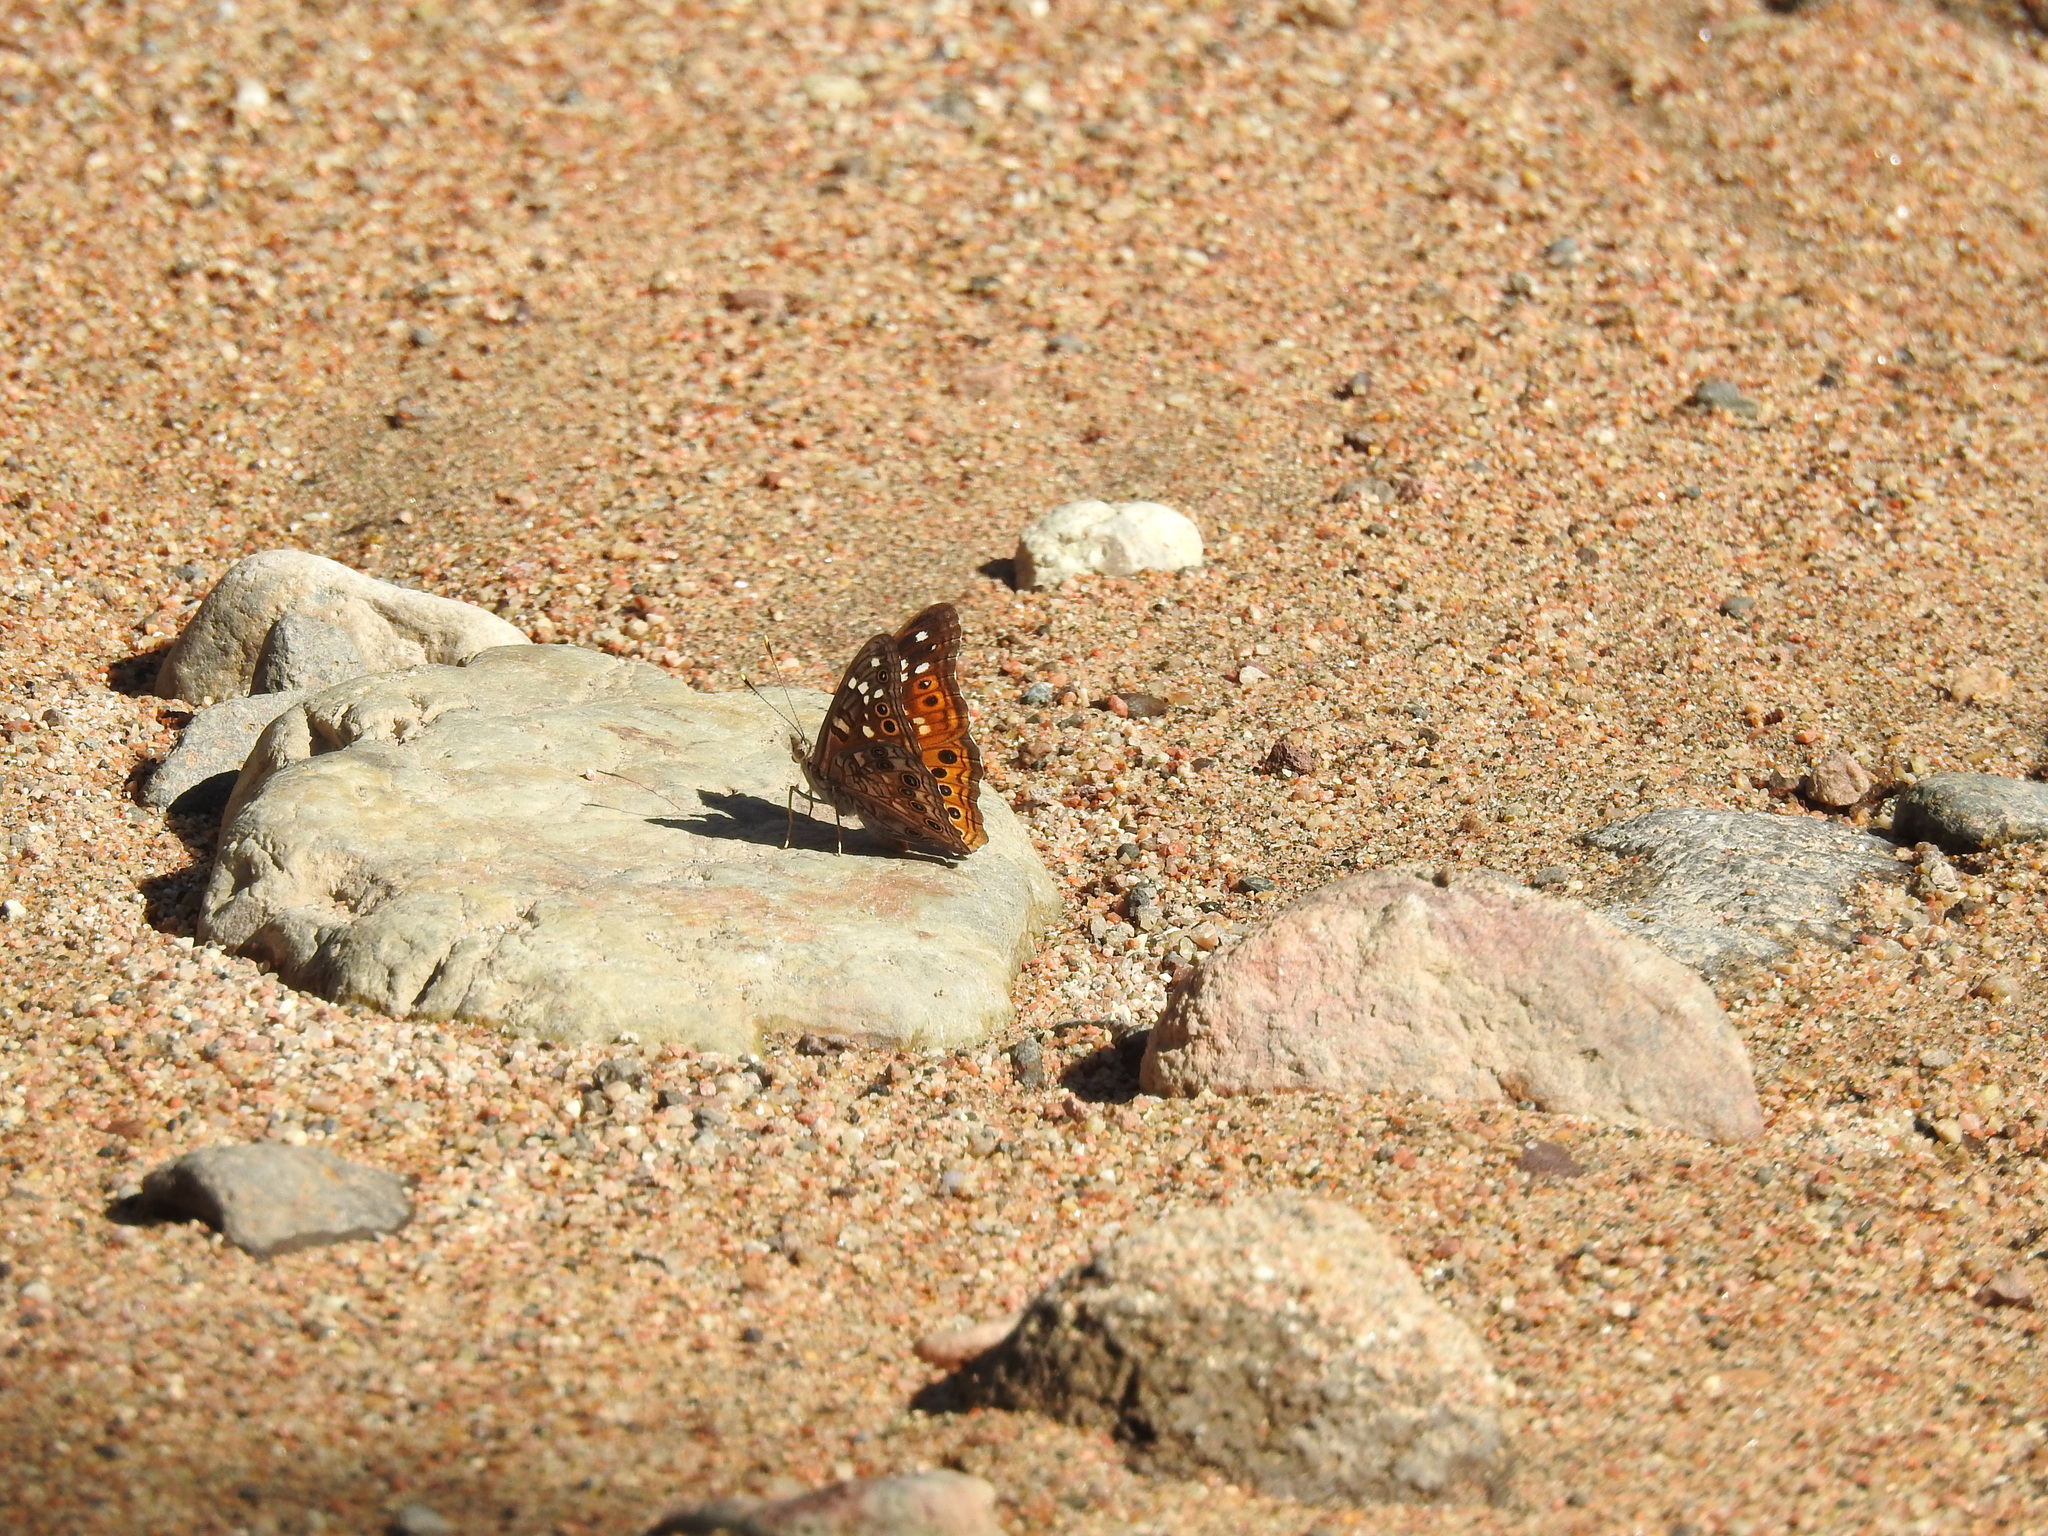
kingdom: Animalia
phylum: Arthropoda
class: Insecta
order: Lepidoptera
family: Nymphalidae
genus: Asterocampa
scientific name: Asterocampa leilia
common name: Empress leilia
